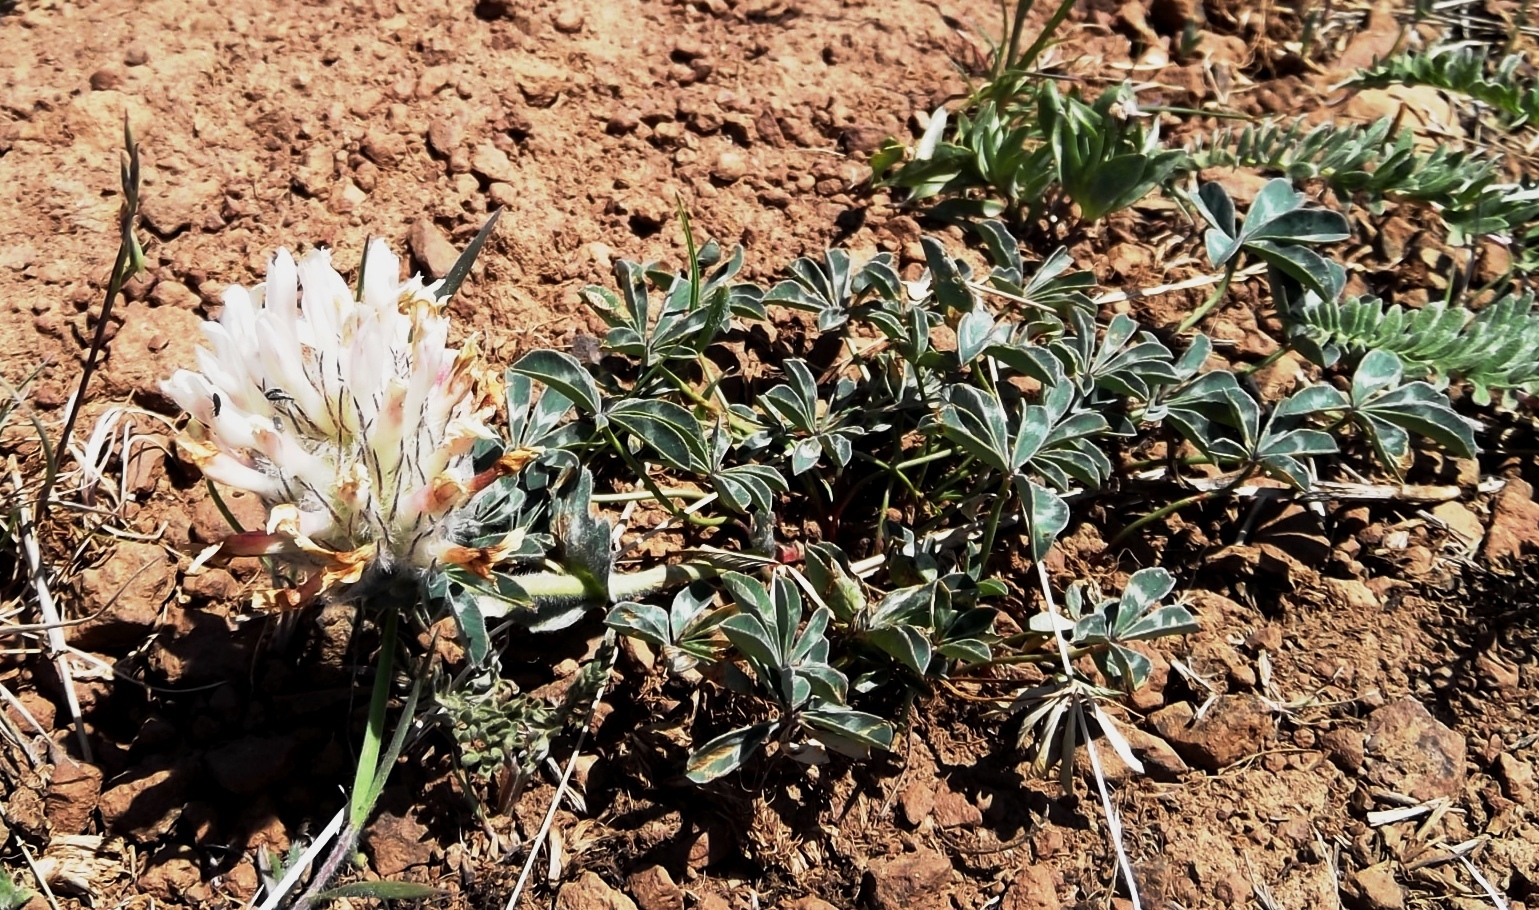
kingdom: Plantae
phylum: Tracheophyta
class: Magnoliopsida
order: Fabales
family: Fabaceae
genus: Trifolium
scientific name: Trifolium macrocephalum
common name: Large-head clover
